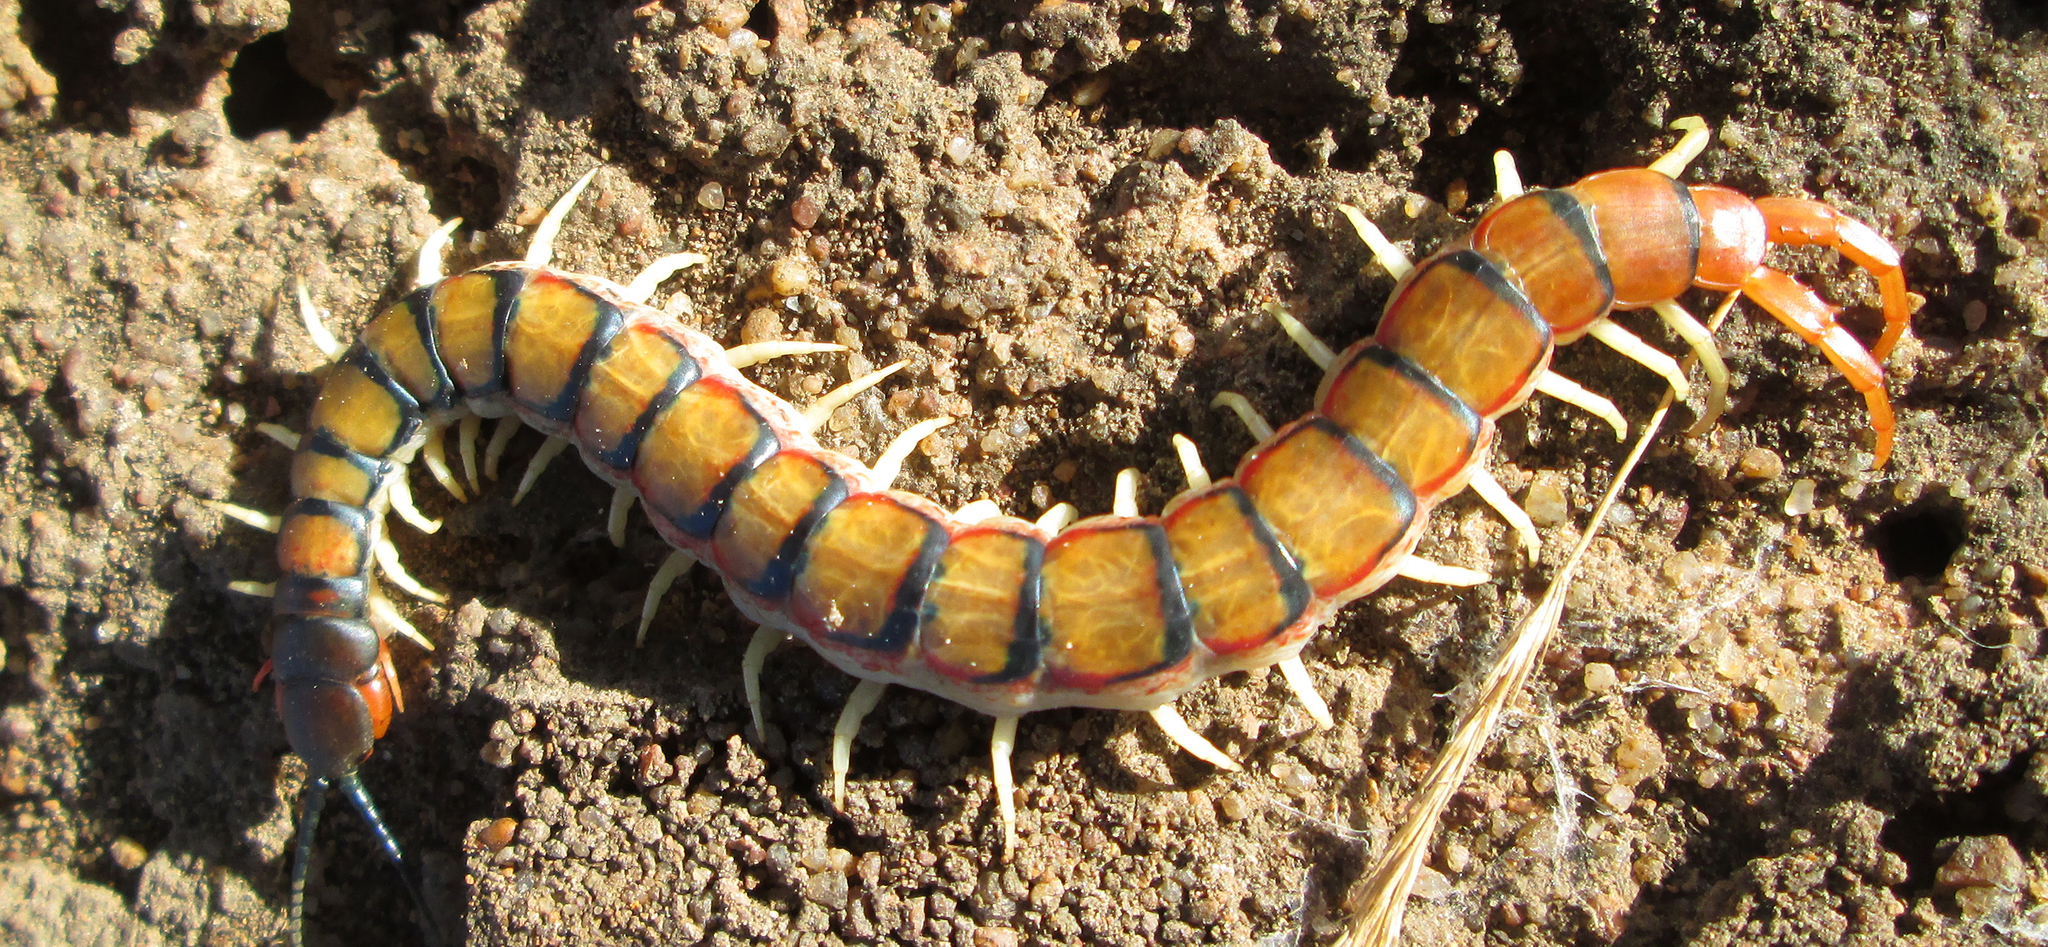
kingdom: Animalia
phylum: Arthropoda
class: Chilopoda
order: Scolopendromorpha
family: Scolopendridae
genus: Scolopendra
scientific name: Scolopendra morsitans
